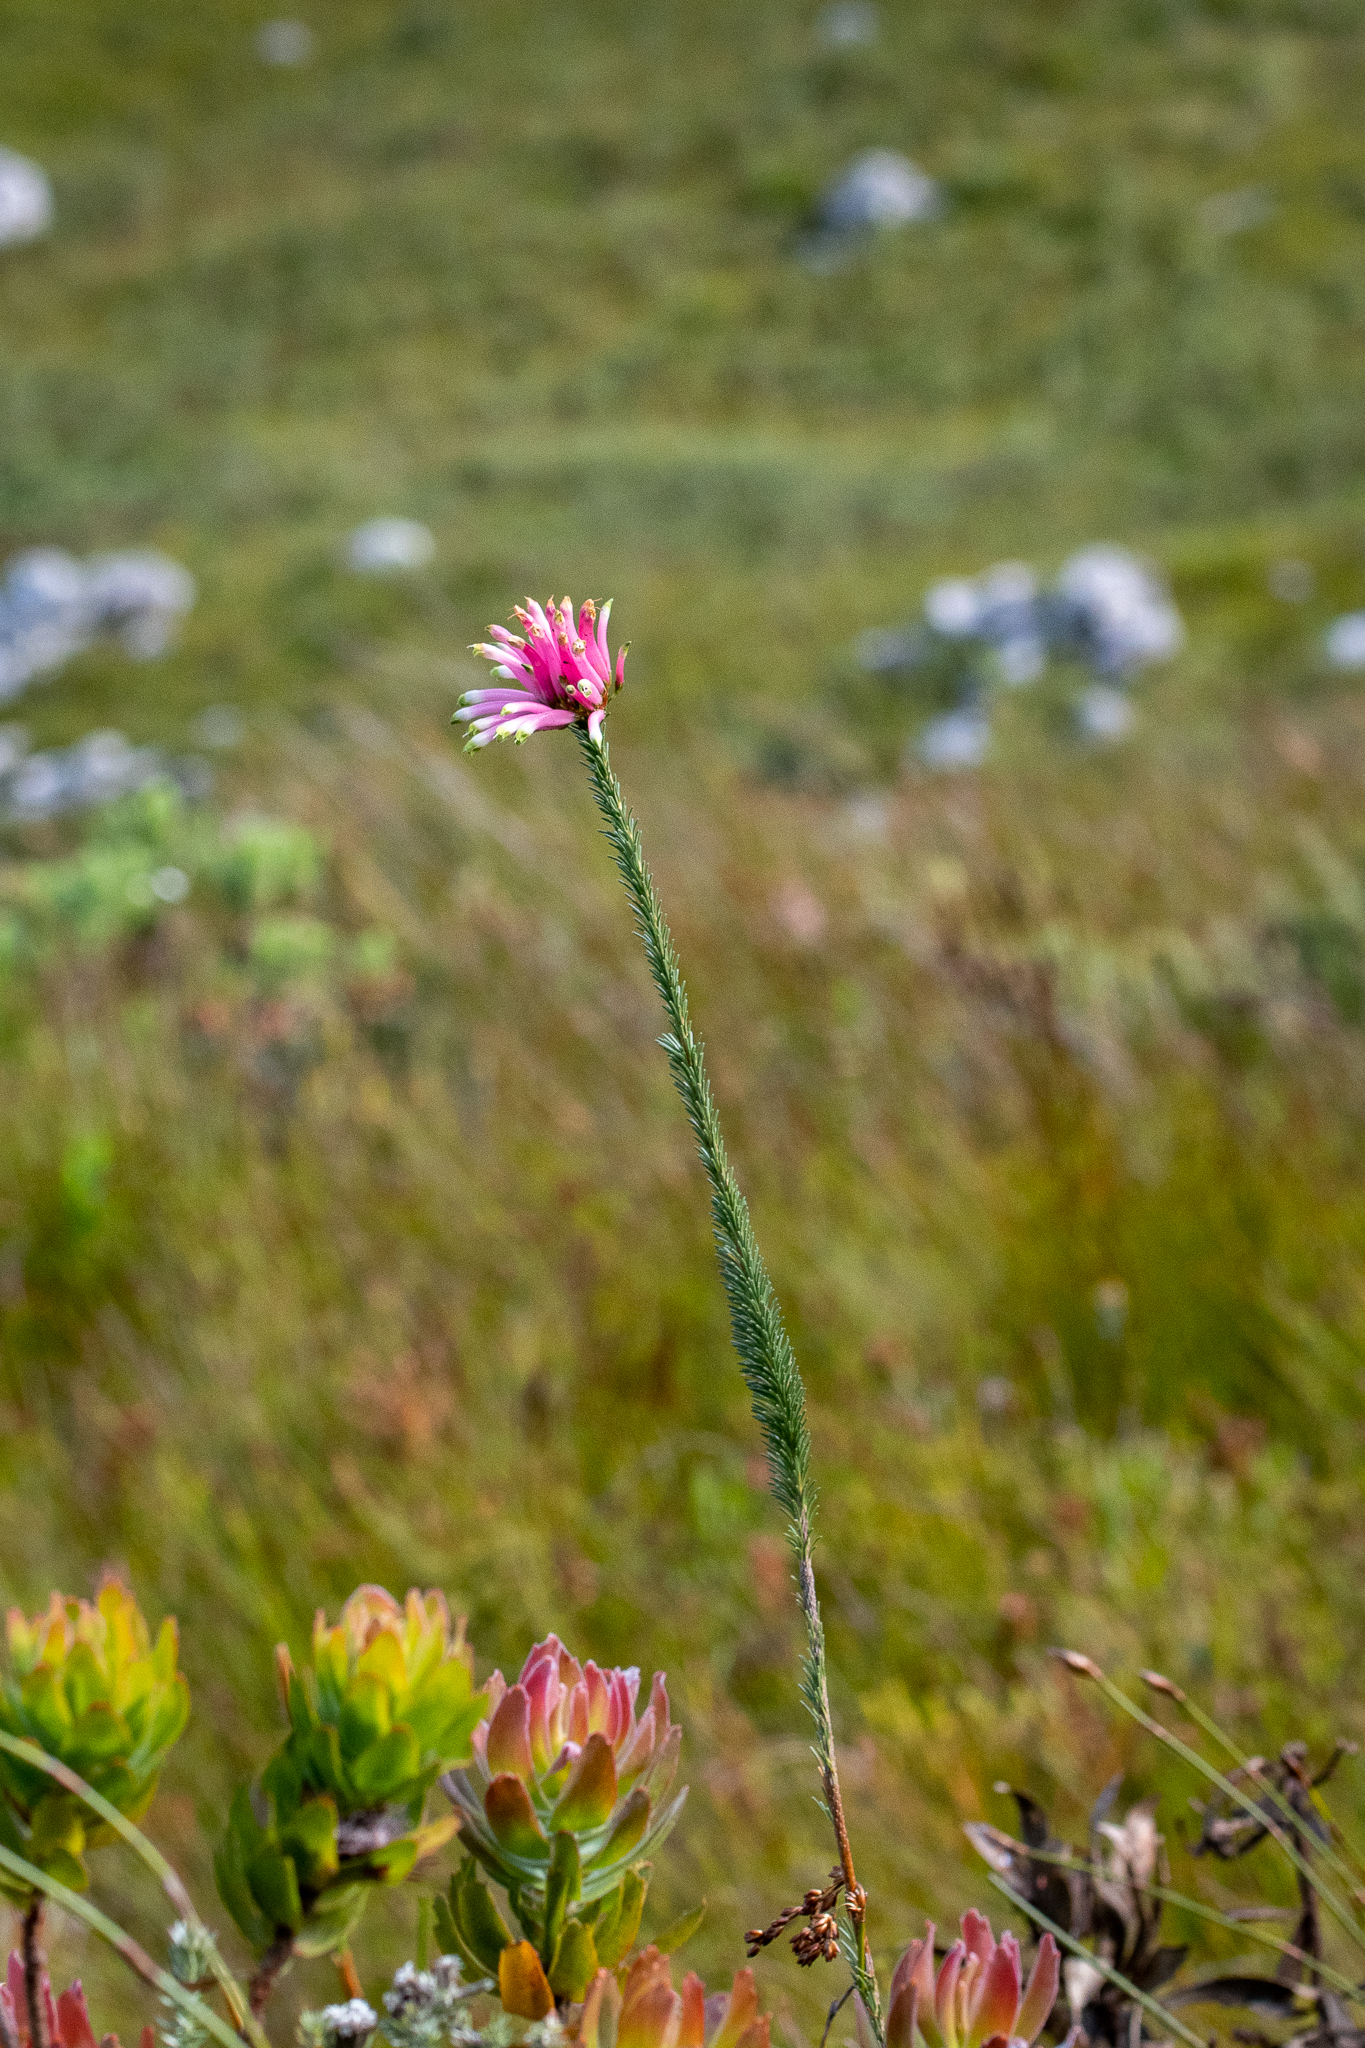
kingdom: Plantae
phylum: Tracheophyta
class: Magnoliopsida
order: Ericales
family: Ericaceae
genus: Erica
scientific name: Erica fascicularis
